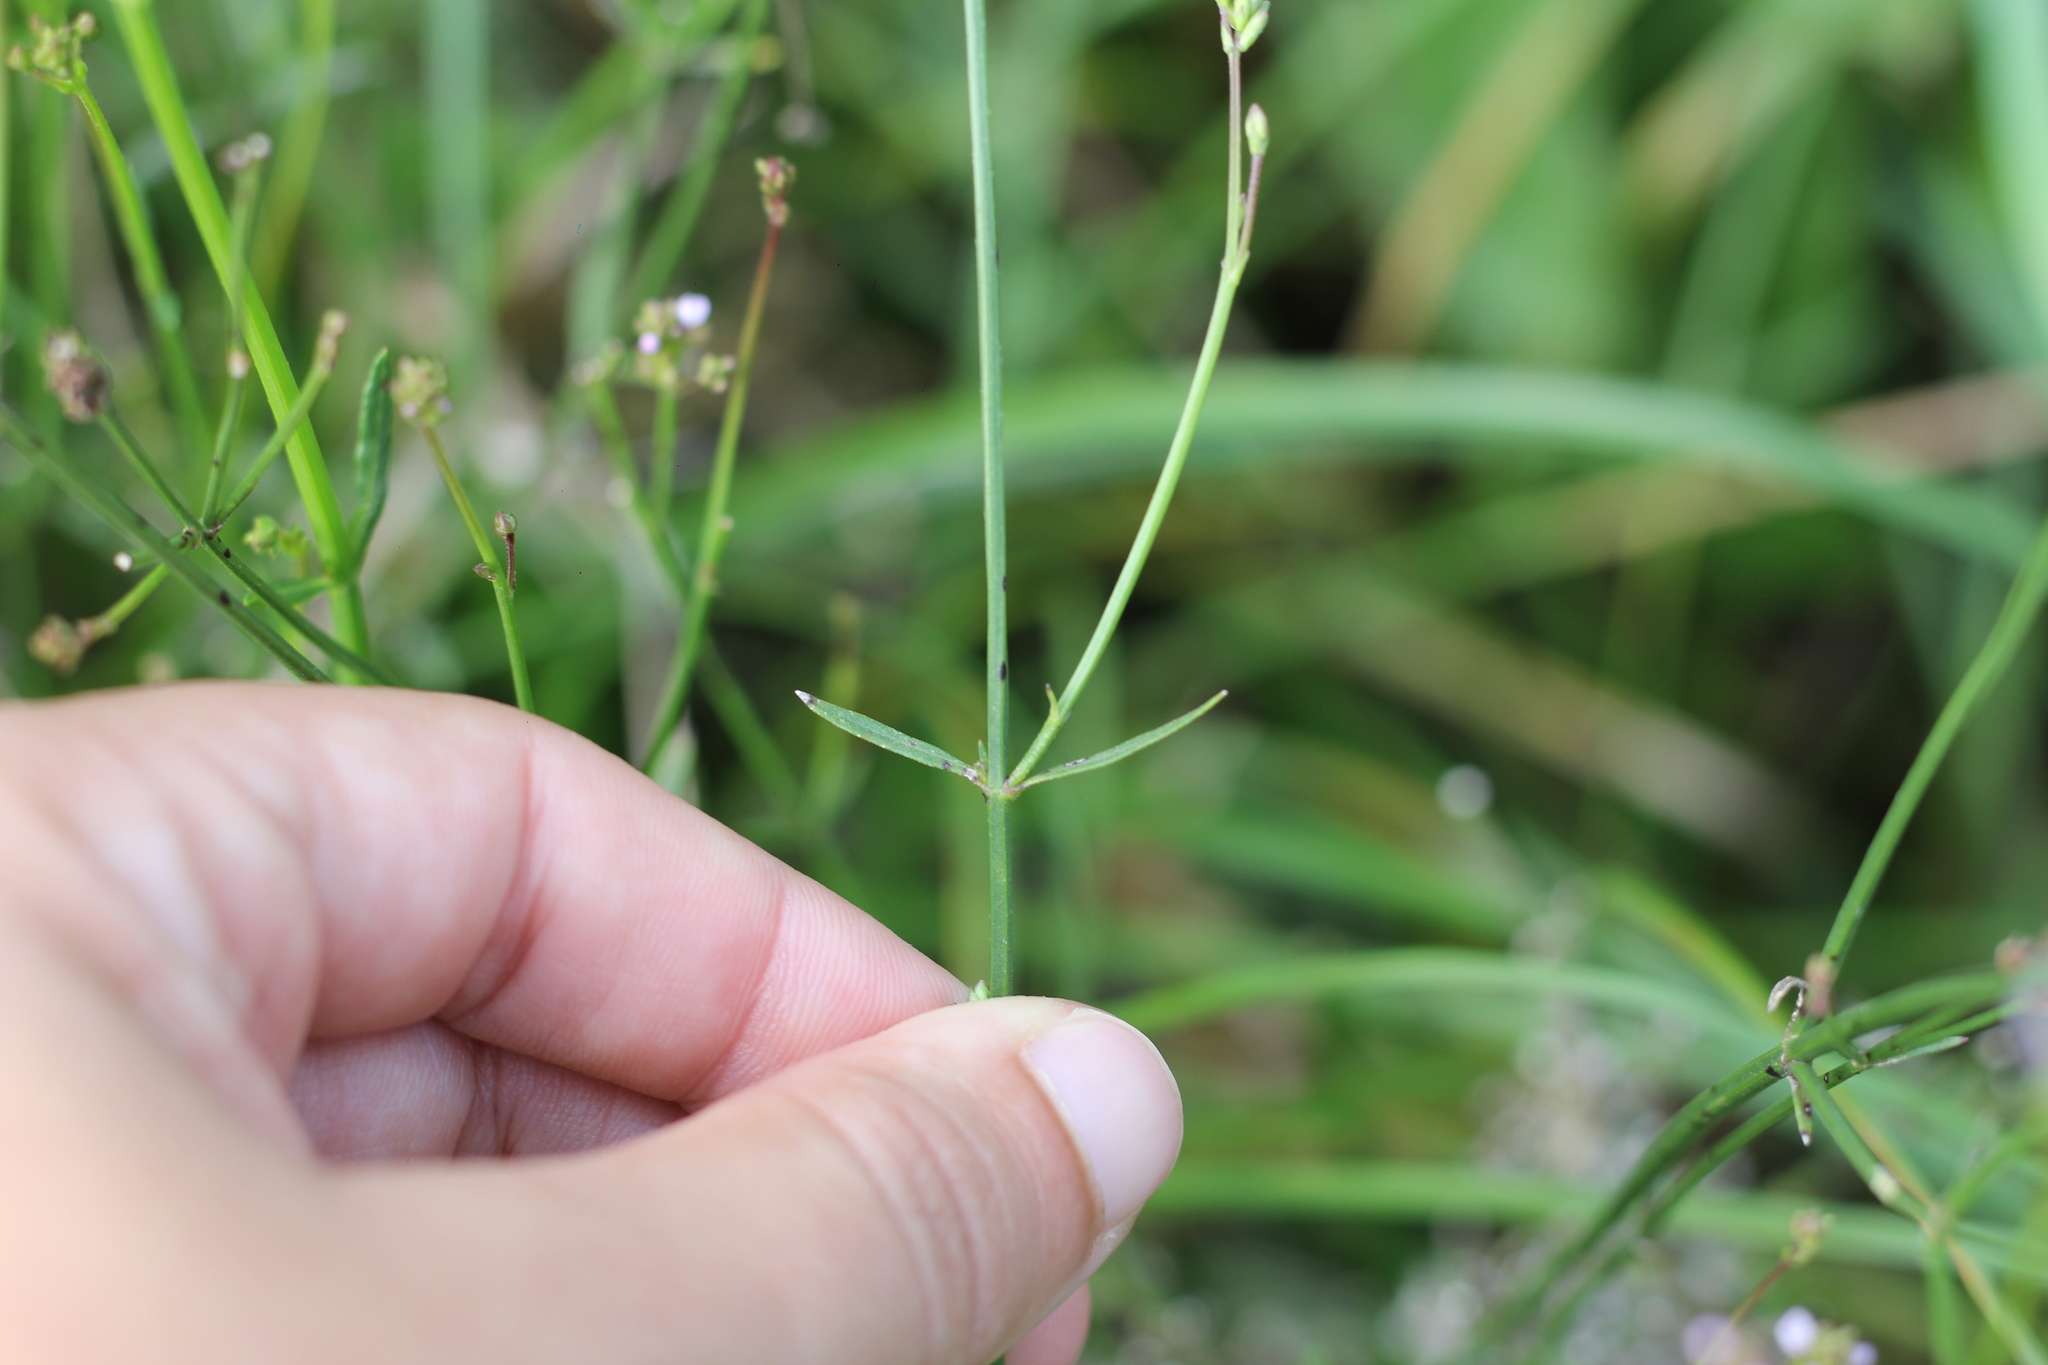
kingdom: Plantae
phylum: Tracheophyta
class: Magnoliopsida
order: Lamiales
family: Verbenaceae
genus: Verbena
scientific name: Verbena litoralis
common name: Seashore vervain
